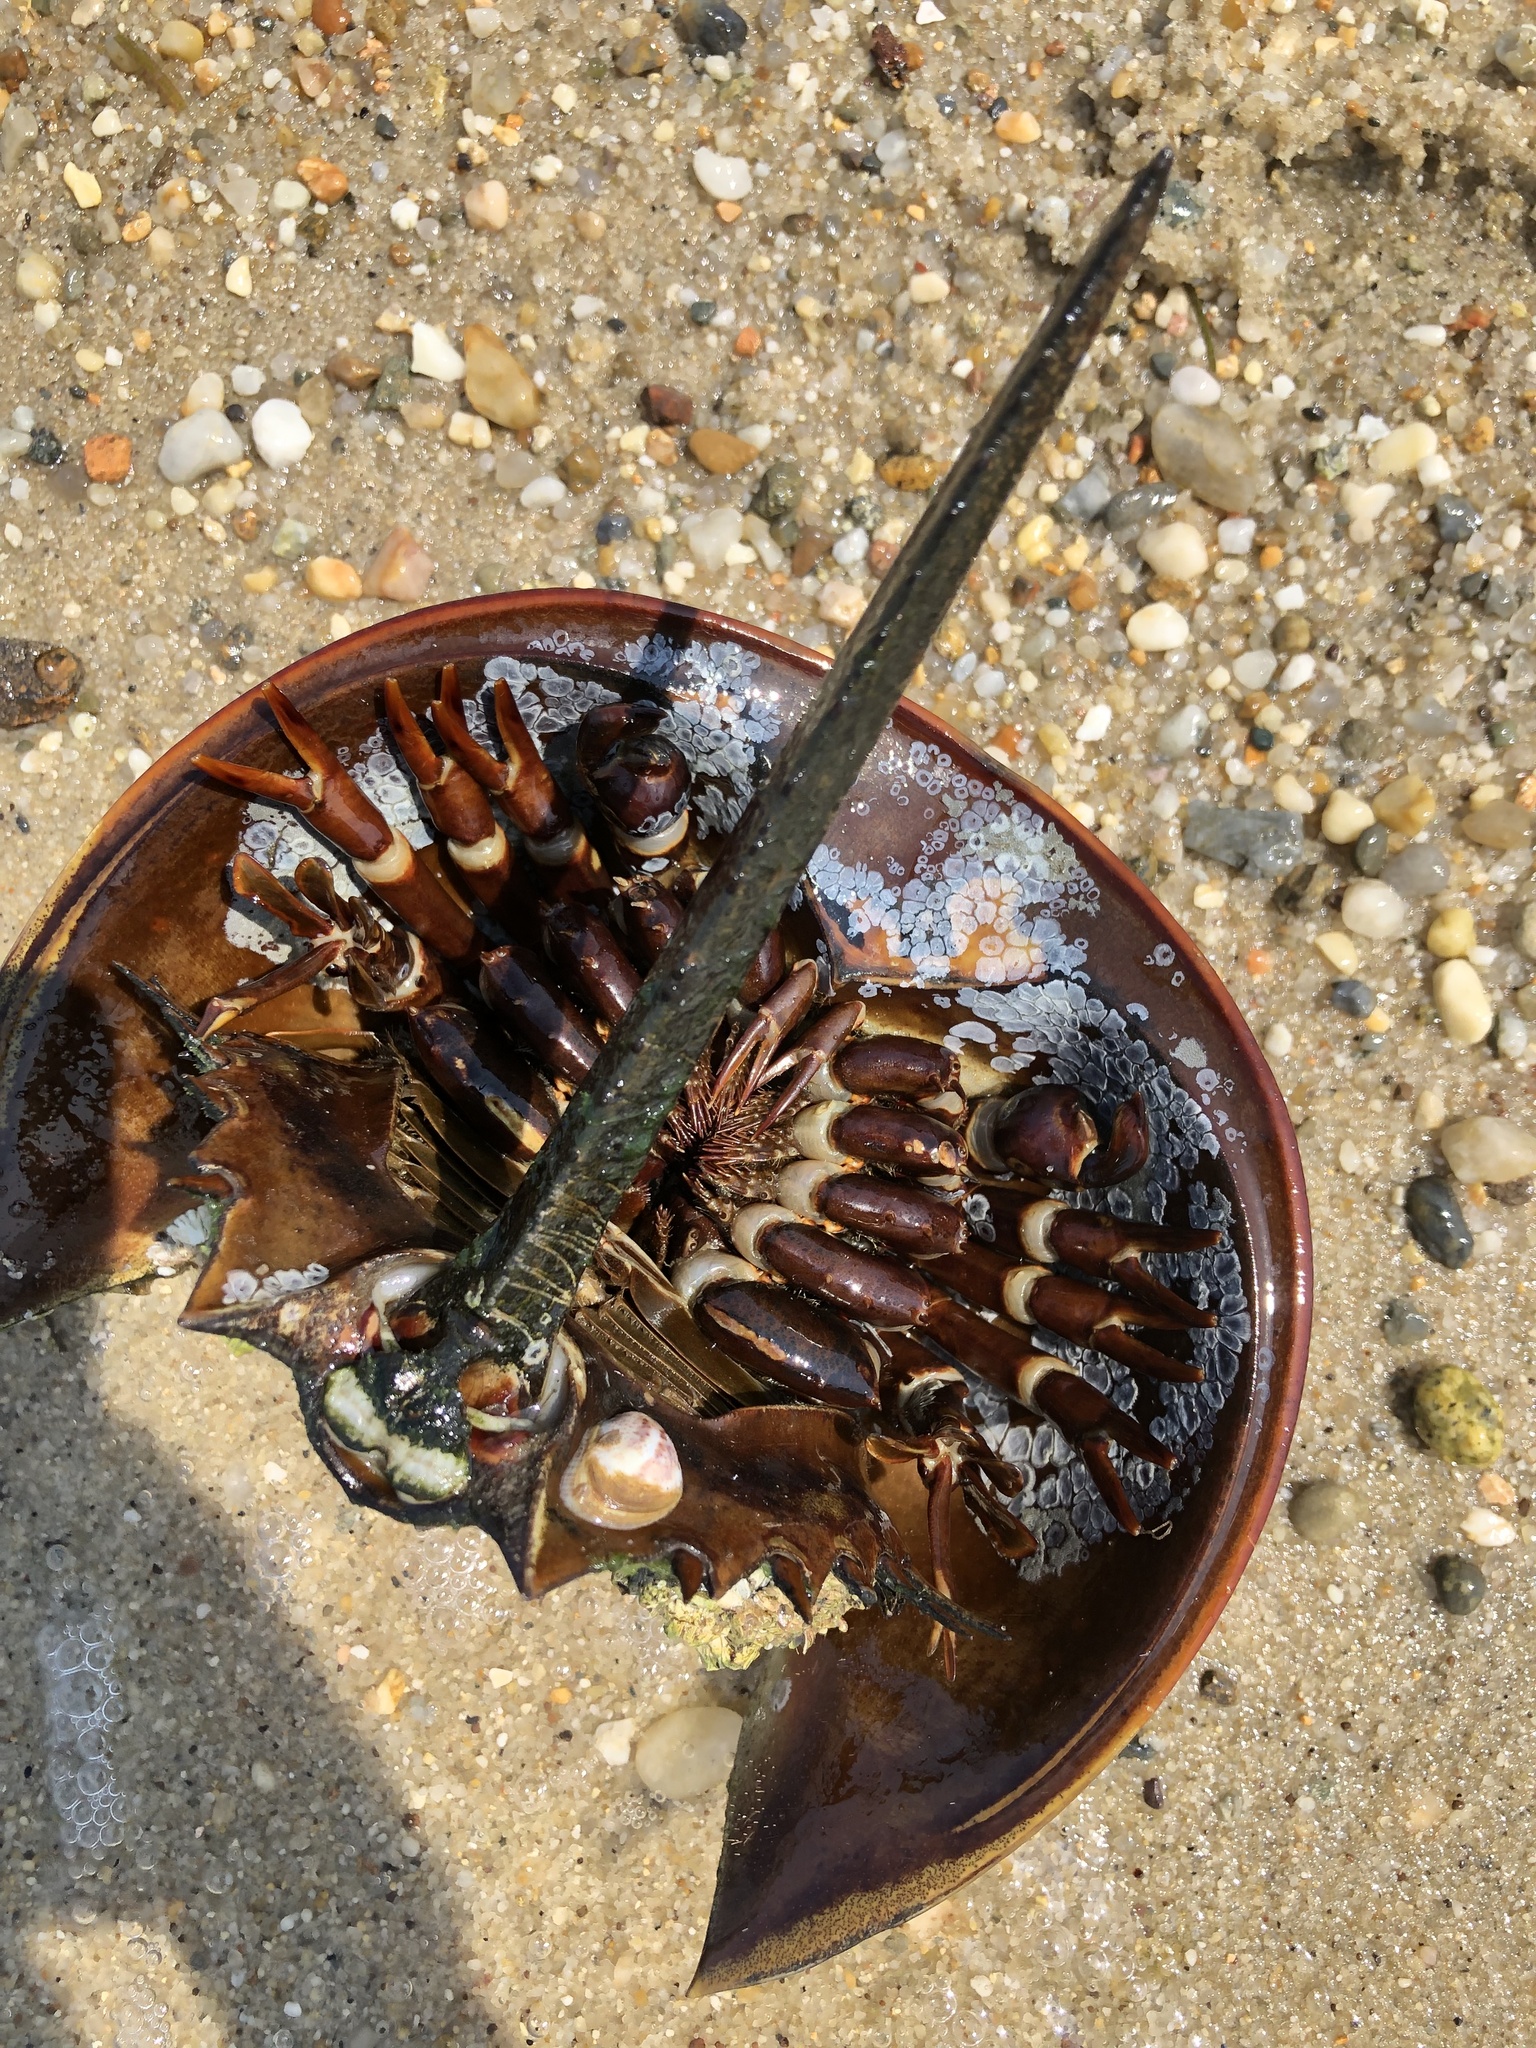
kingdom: Animalia
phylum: Arthropoda
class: Merostomata
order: Xiphosurida
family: Limulidae
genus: Limulus
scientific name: Limulus polyphemus
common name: Horseshoe crab
